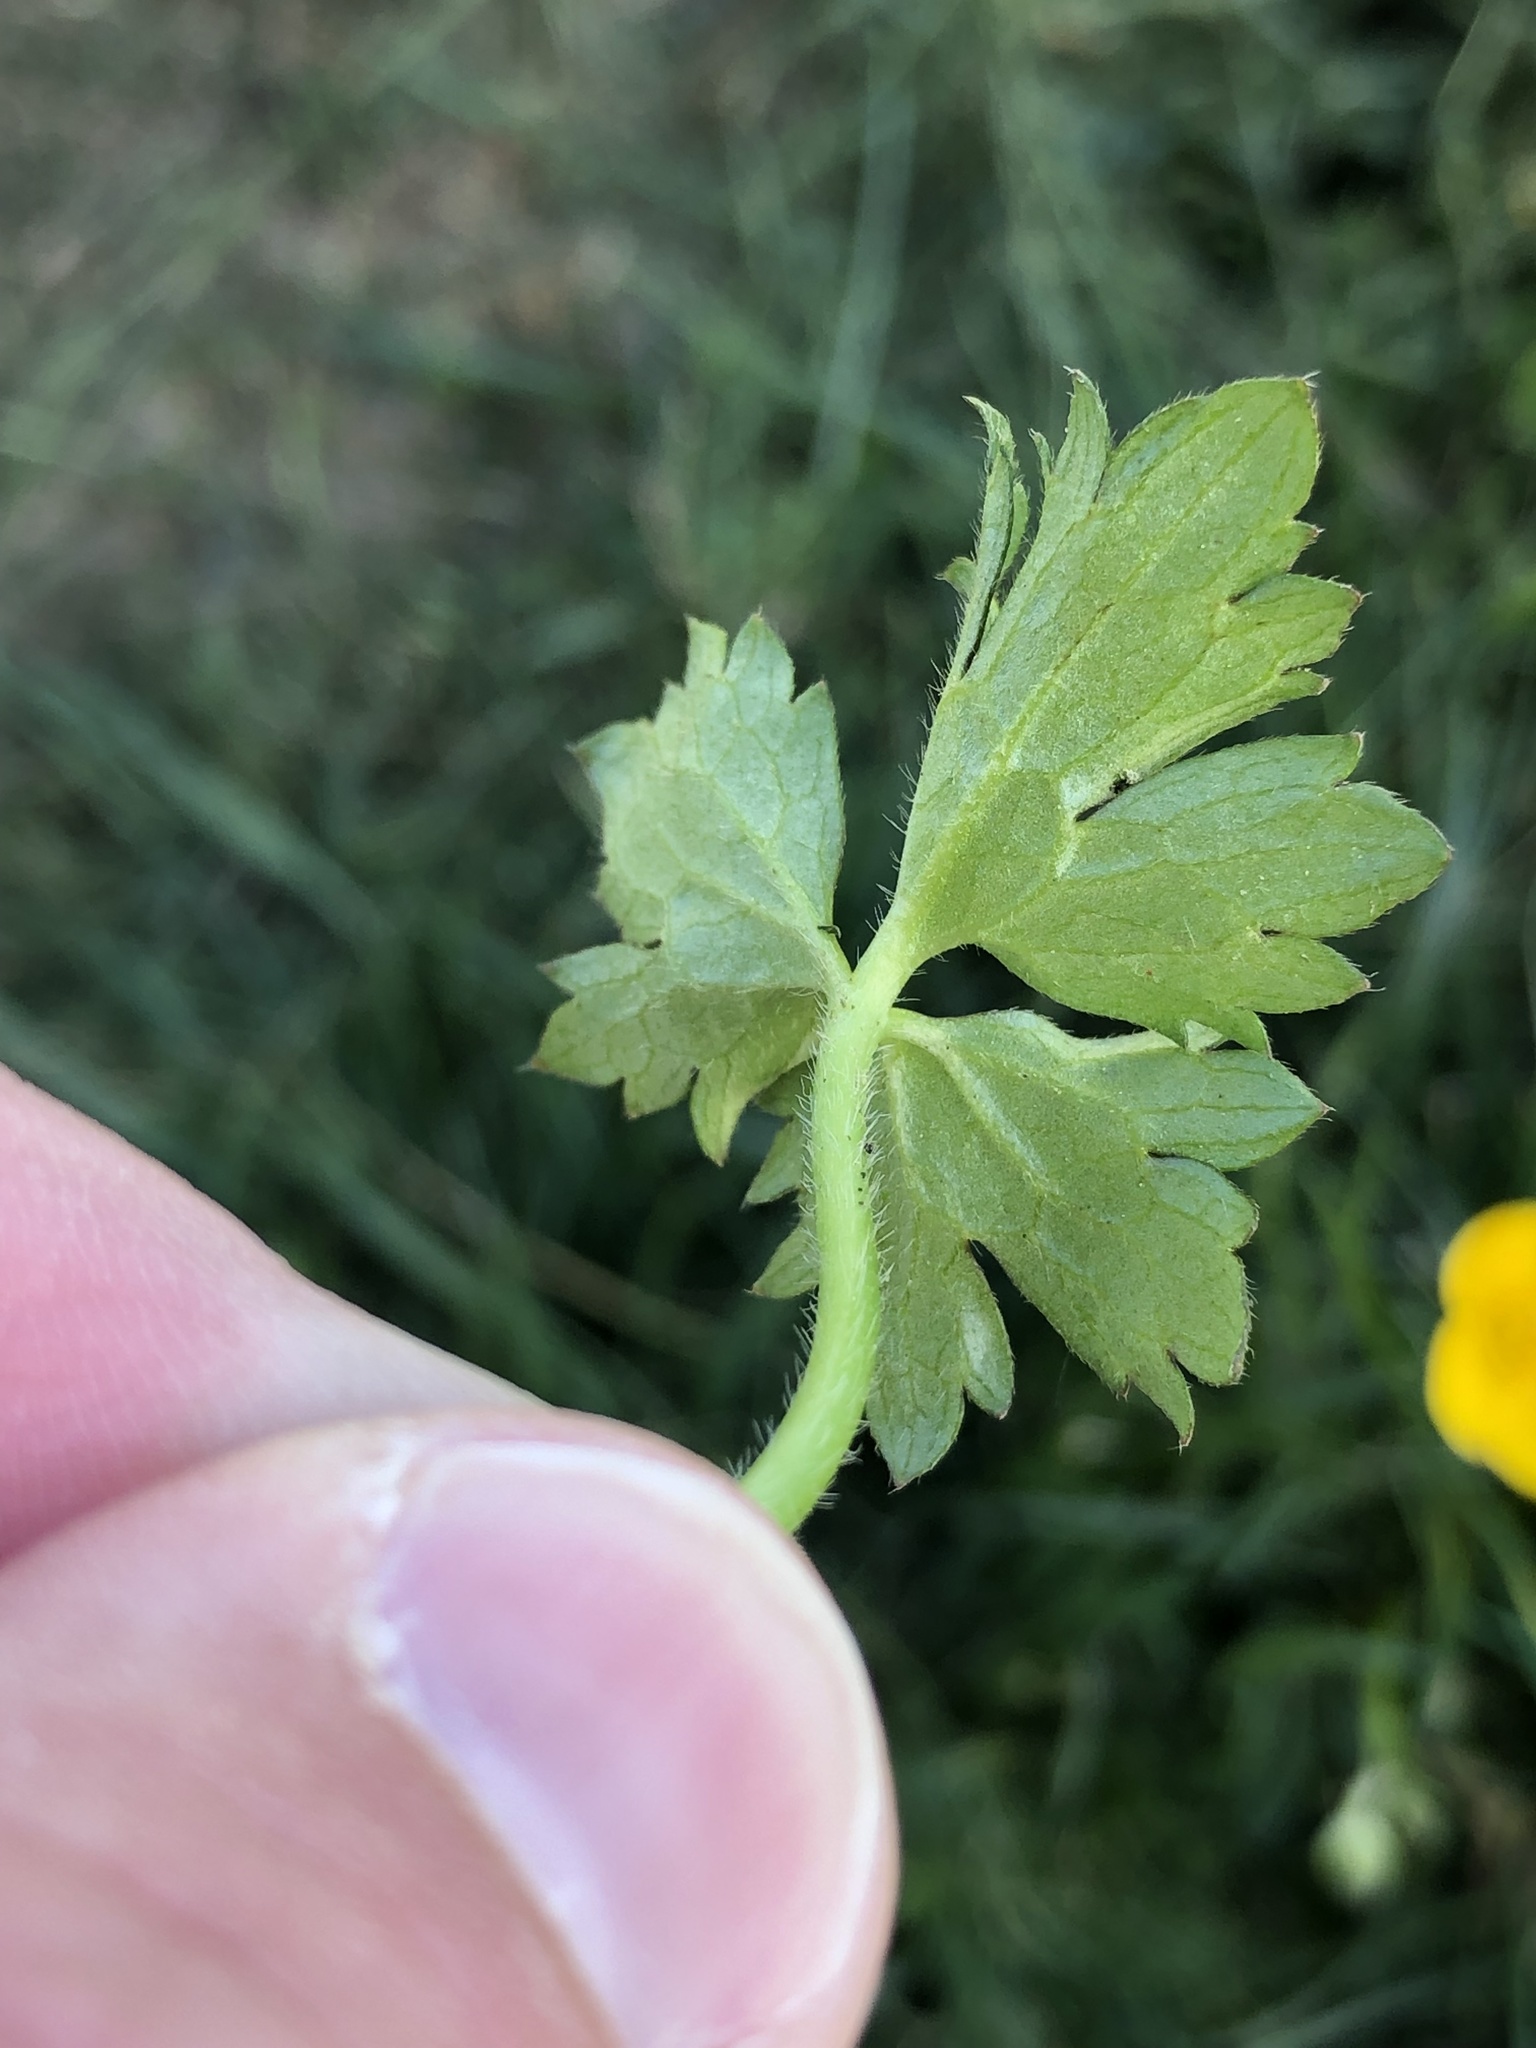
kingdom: Plantae
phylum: Tracheophyta
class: Magnoliopsida
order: Ranunculales
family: Ranunculaceae
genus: Ranunculus
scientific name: Ranunculus repens
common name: Creeping buttercup
